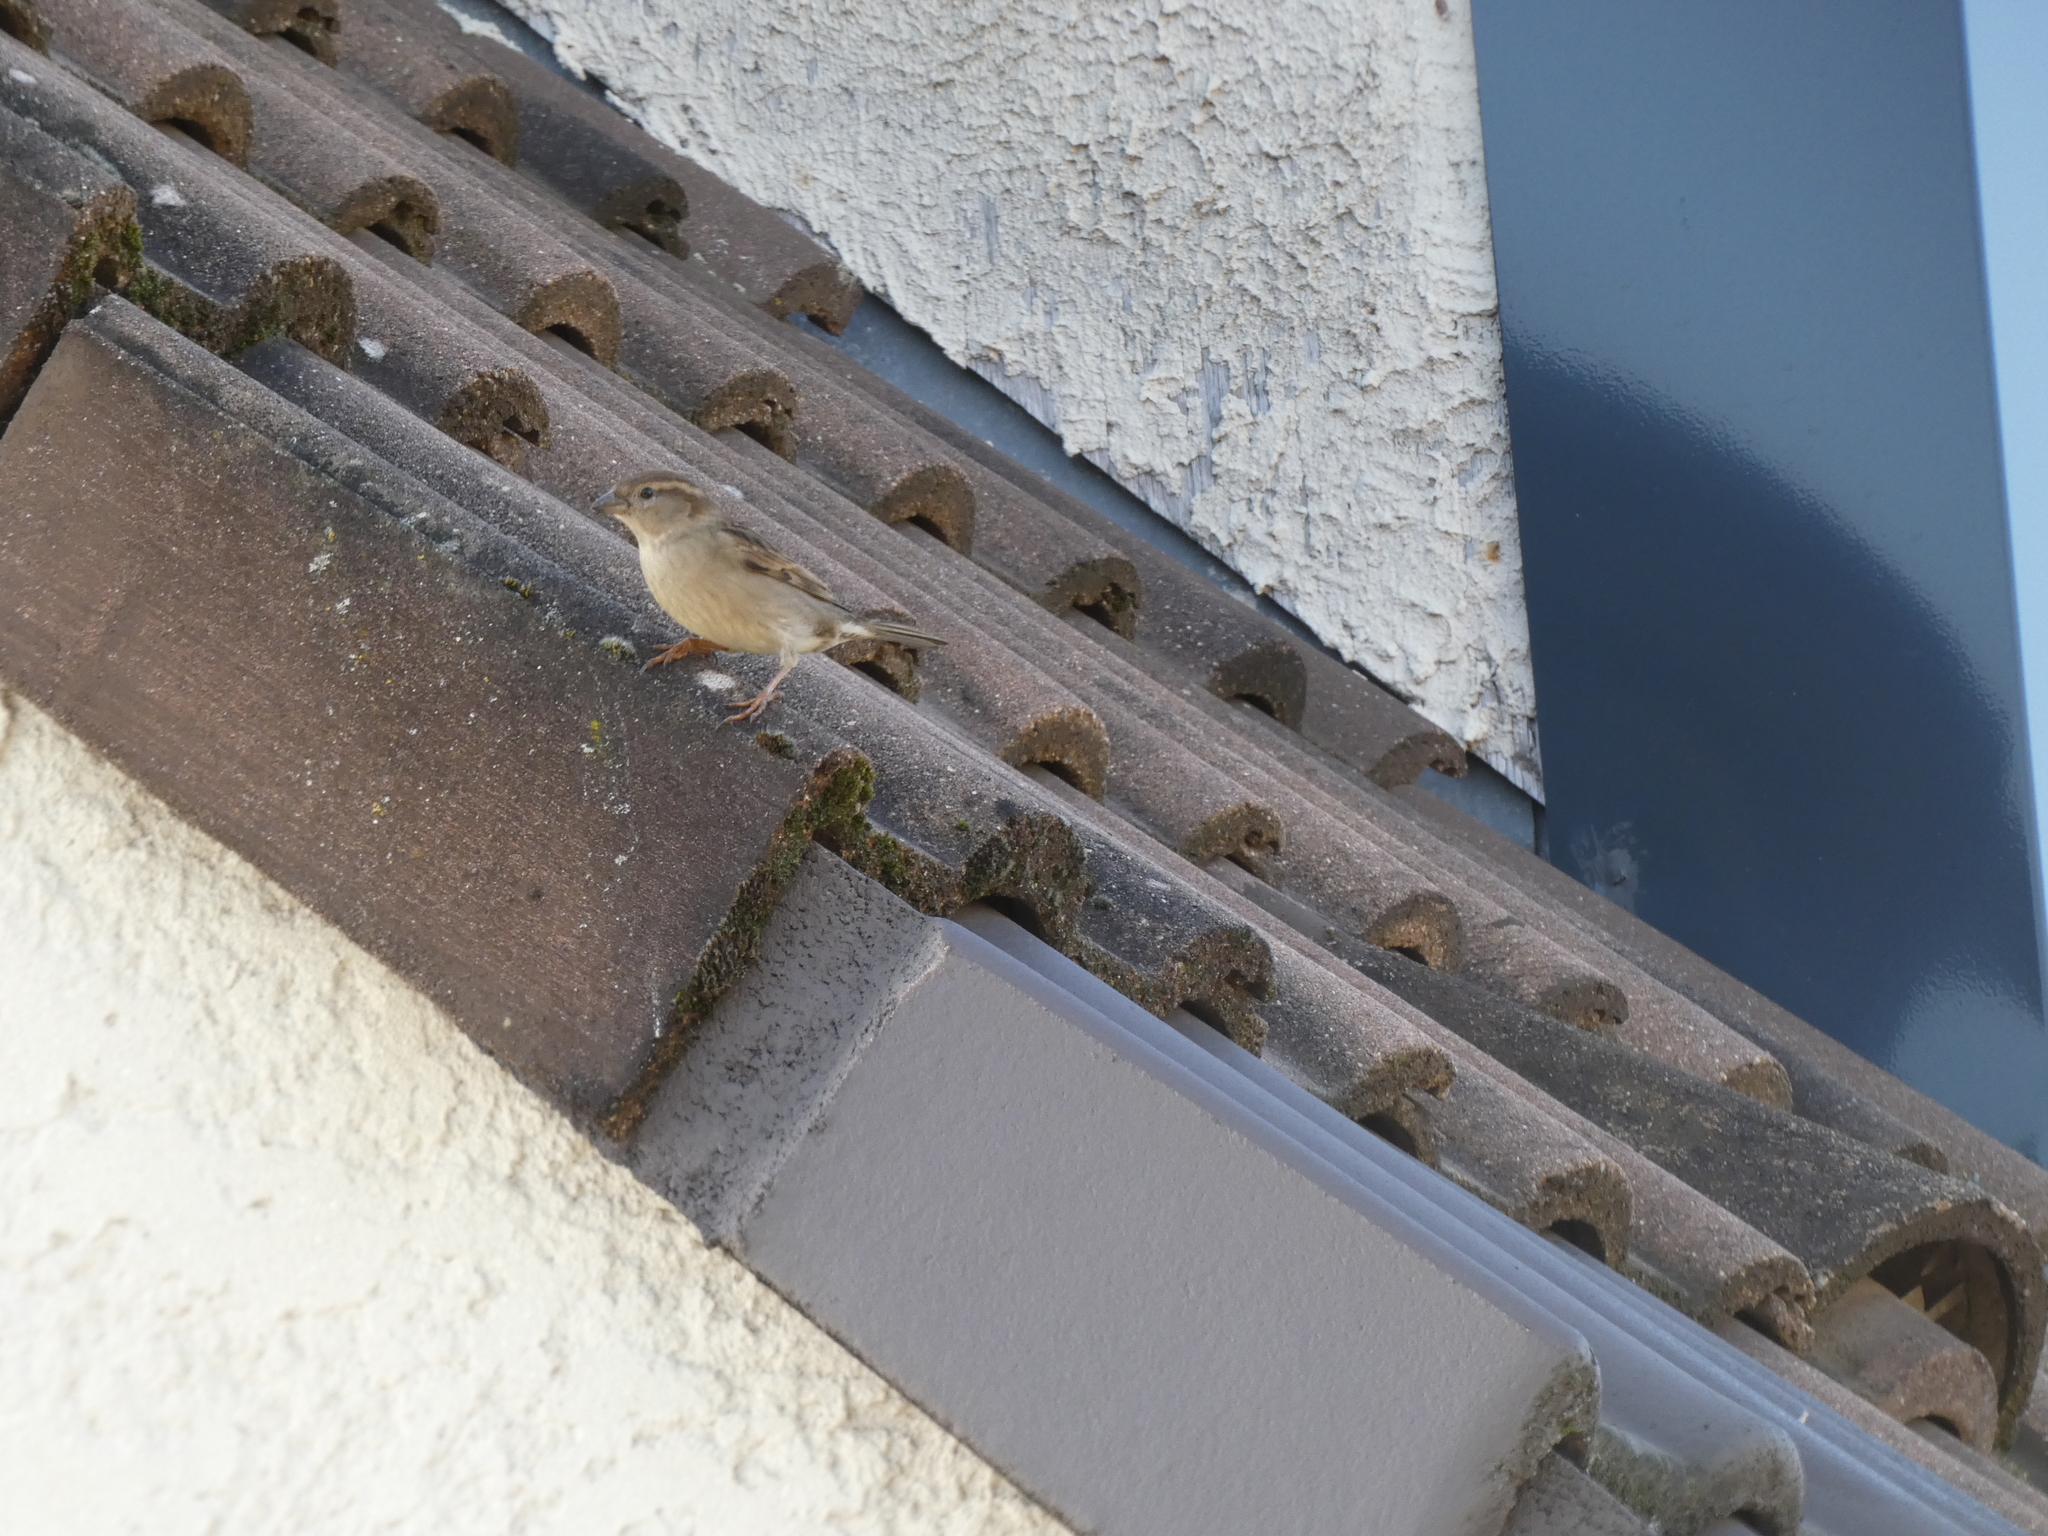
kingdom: Animalia
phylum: Chordata
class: Aves
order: Passeriformes
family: Passeridae
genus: Passer
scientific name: Passer domesticus
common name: House sparrow
